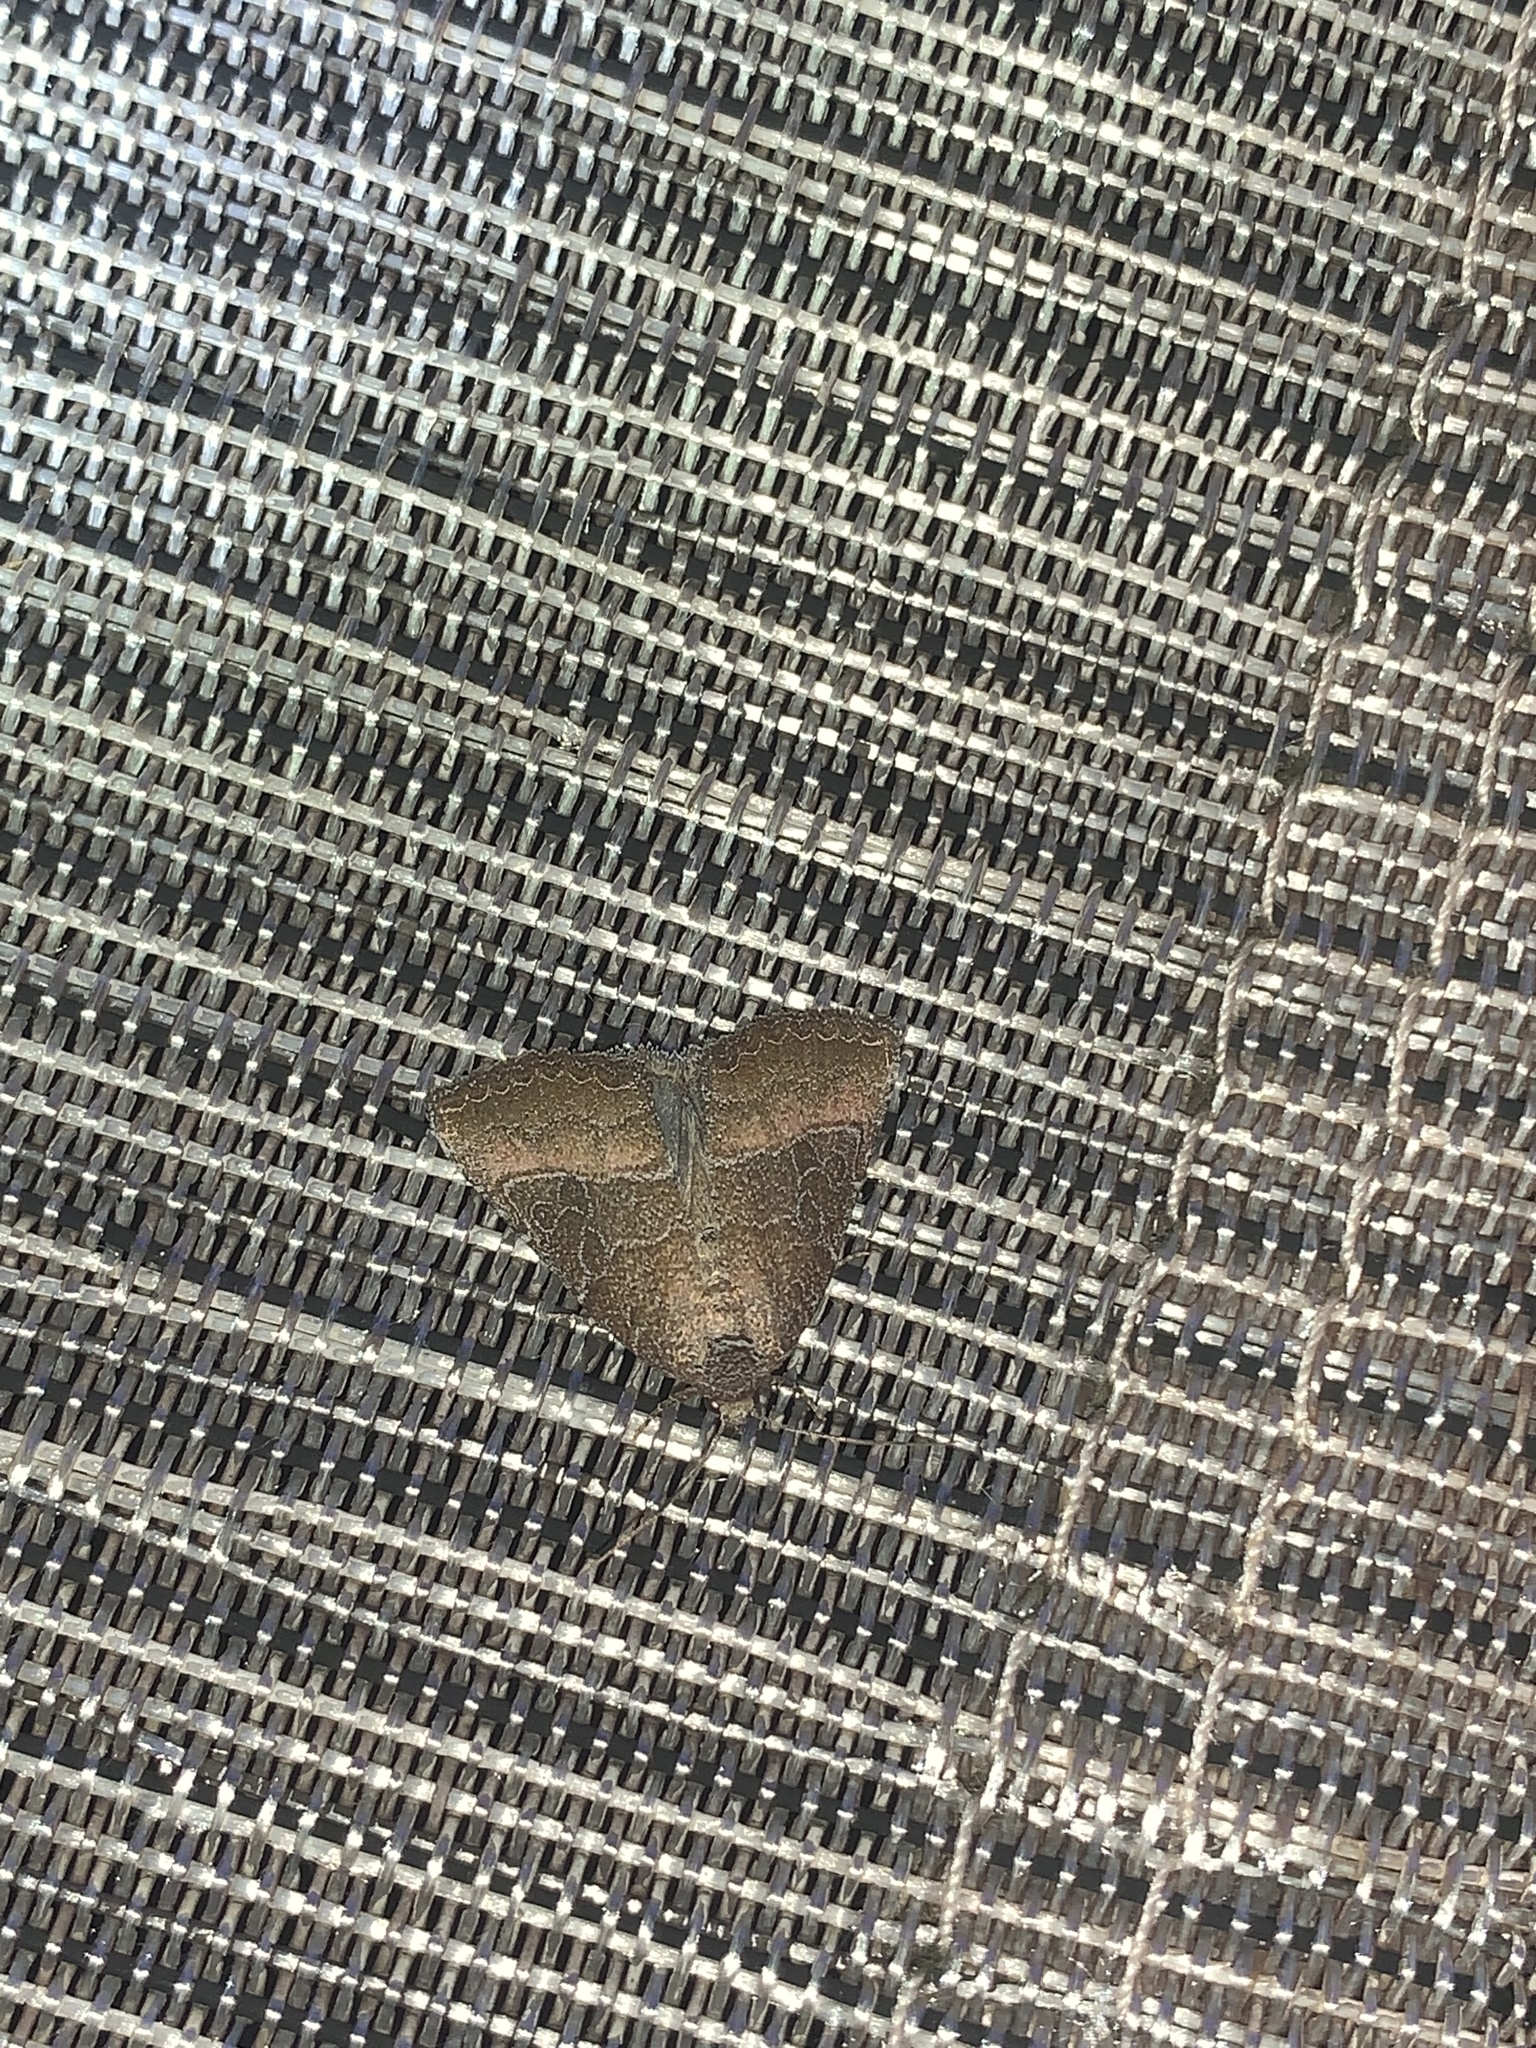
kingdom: Animalia
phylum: Arthropoda
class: Insecta
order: Lepidoptera
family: Noctuidae
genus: Ogdoconta
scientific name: Ogdoconta cinereola
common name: Common pinkband
